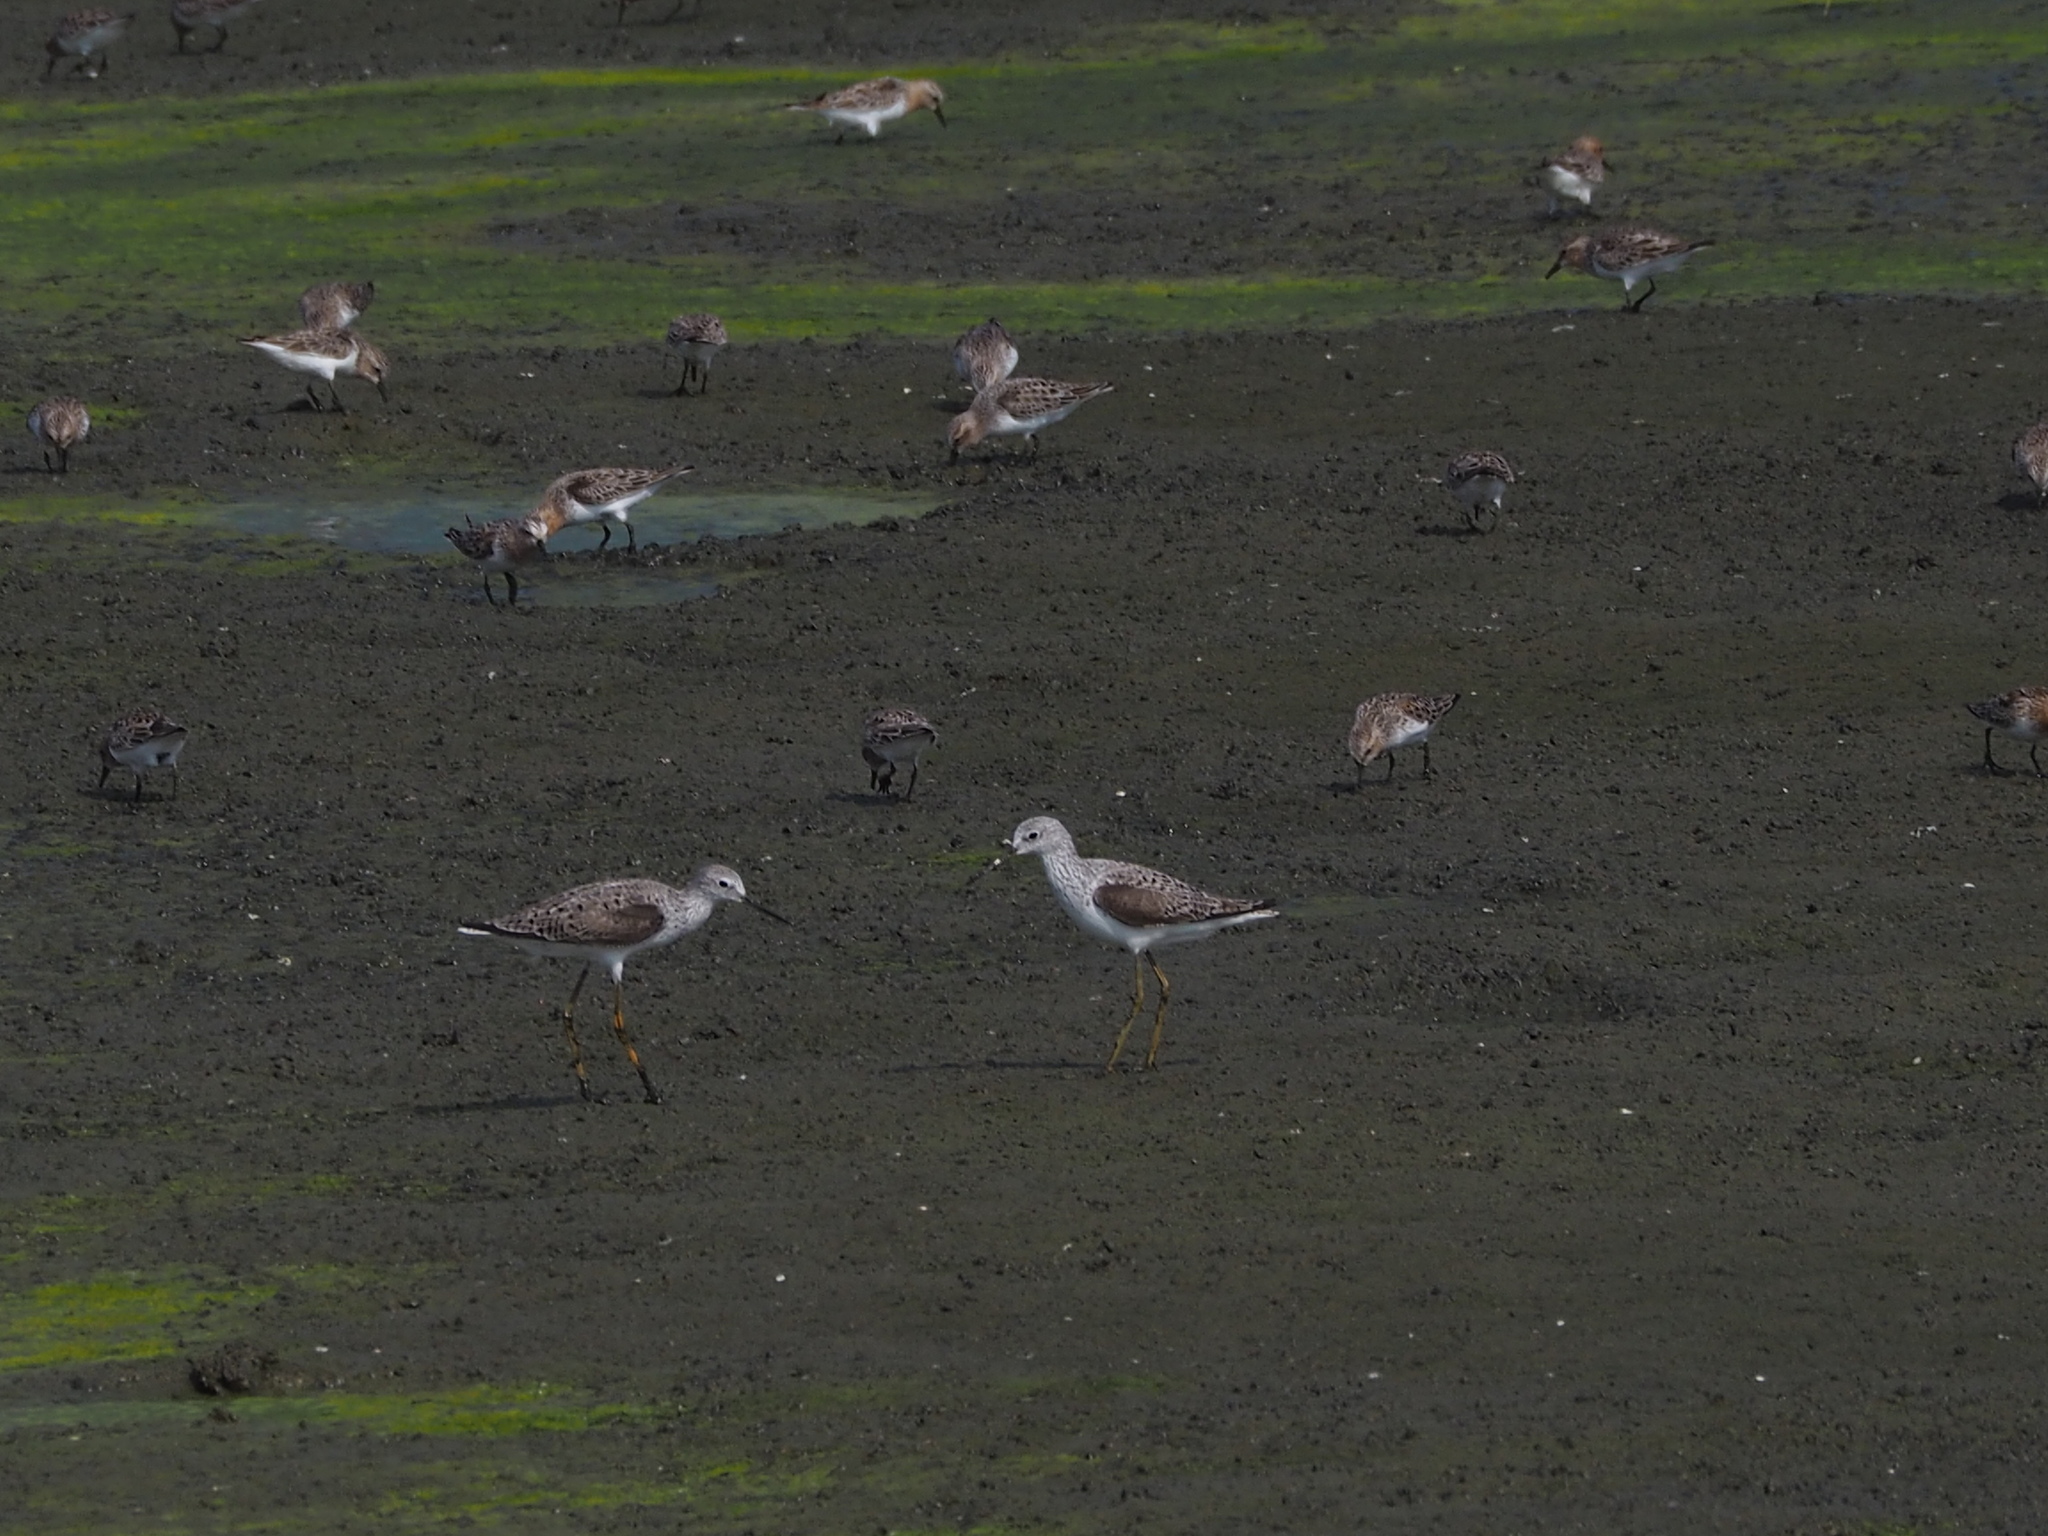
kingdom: Animalia
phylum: Chordata
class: Aves
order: Charadriiformes
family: Scolopacidae
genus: Tringa
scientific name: Tringa stagnatilis
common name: Marsh sandpiper
